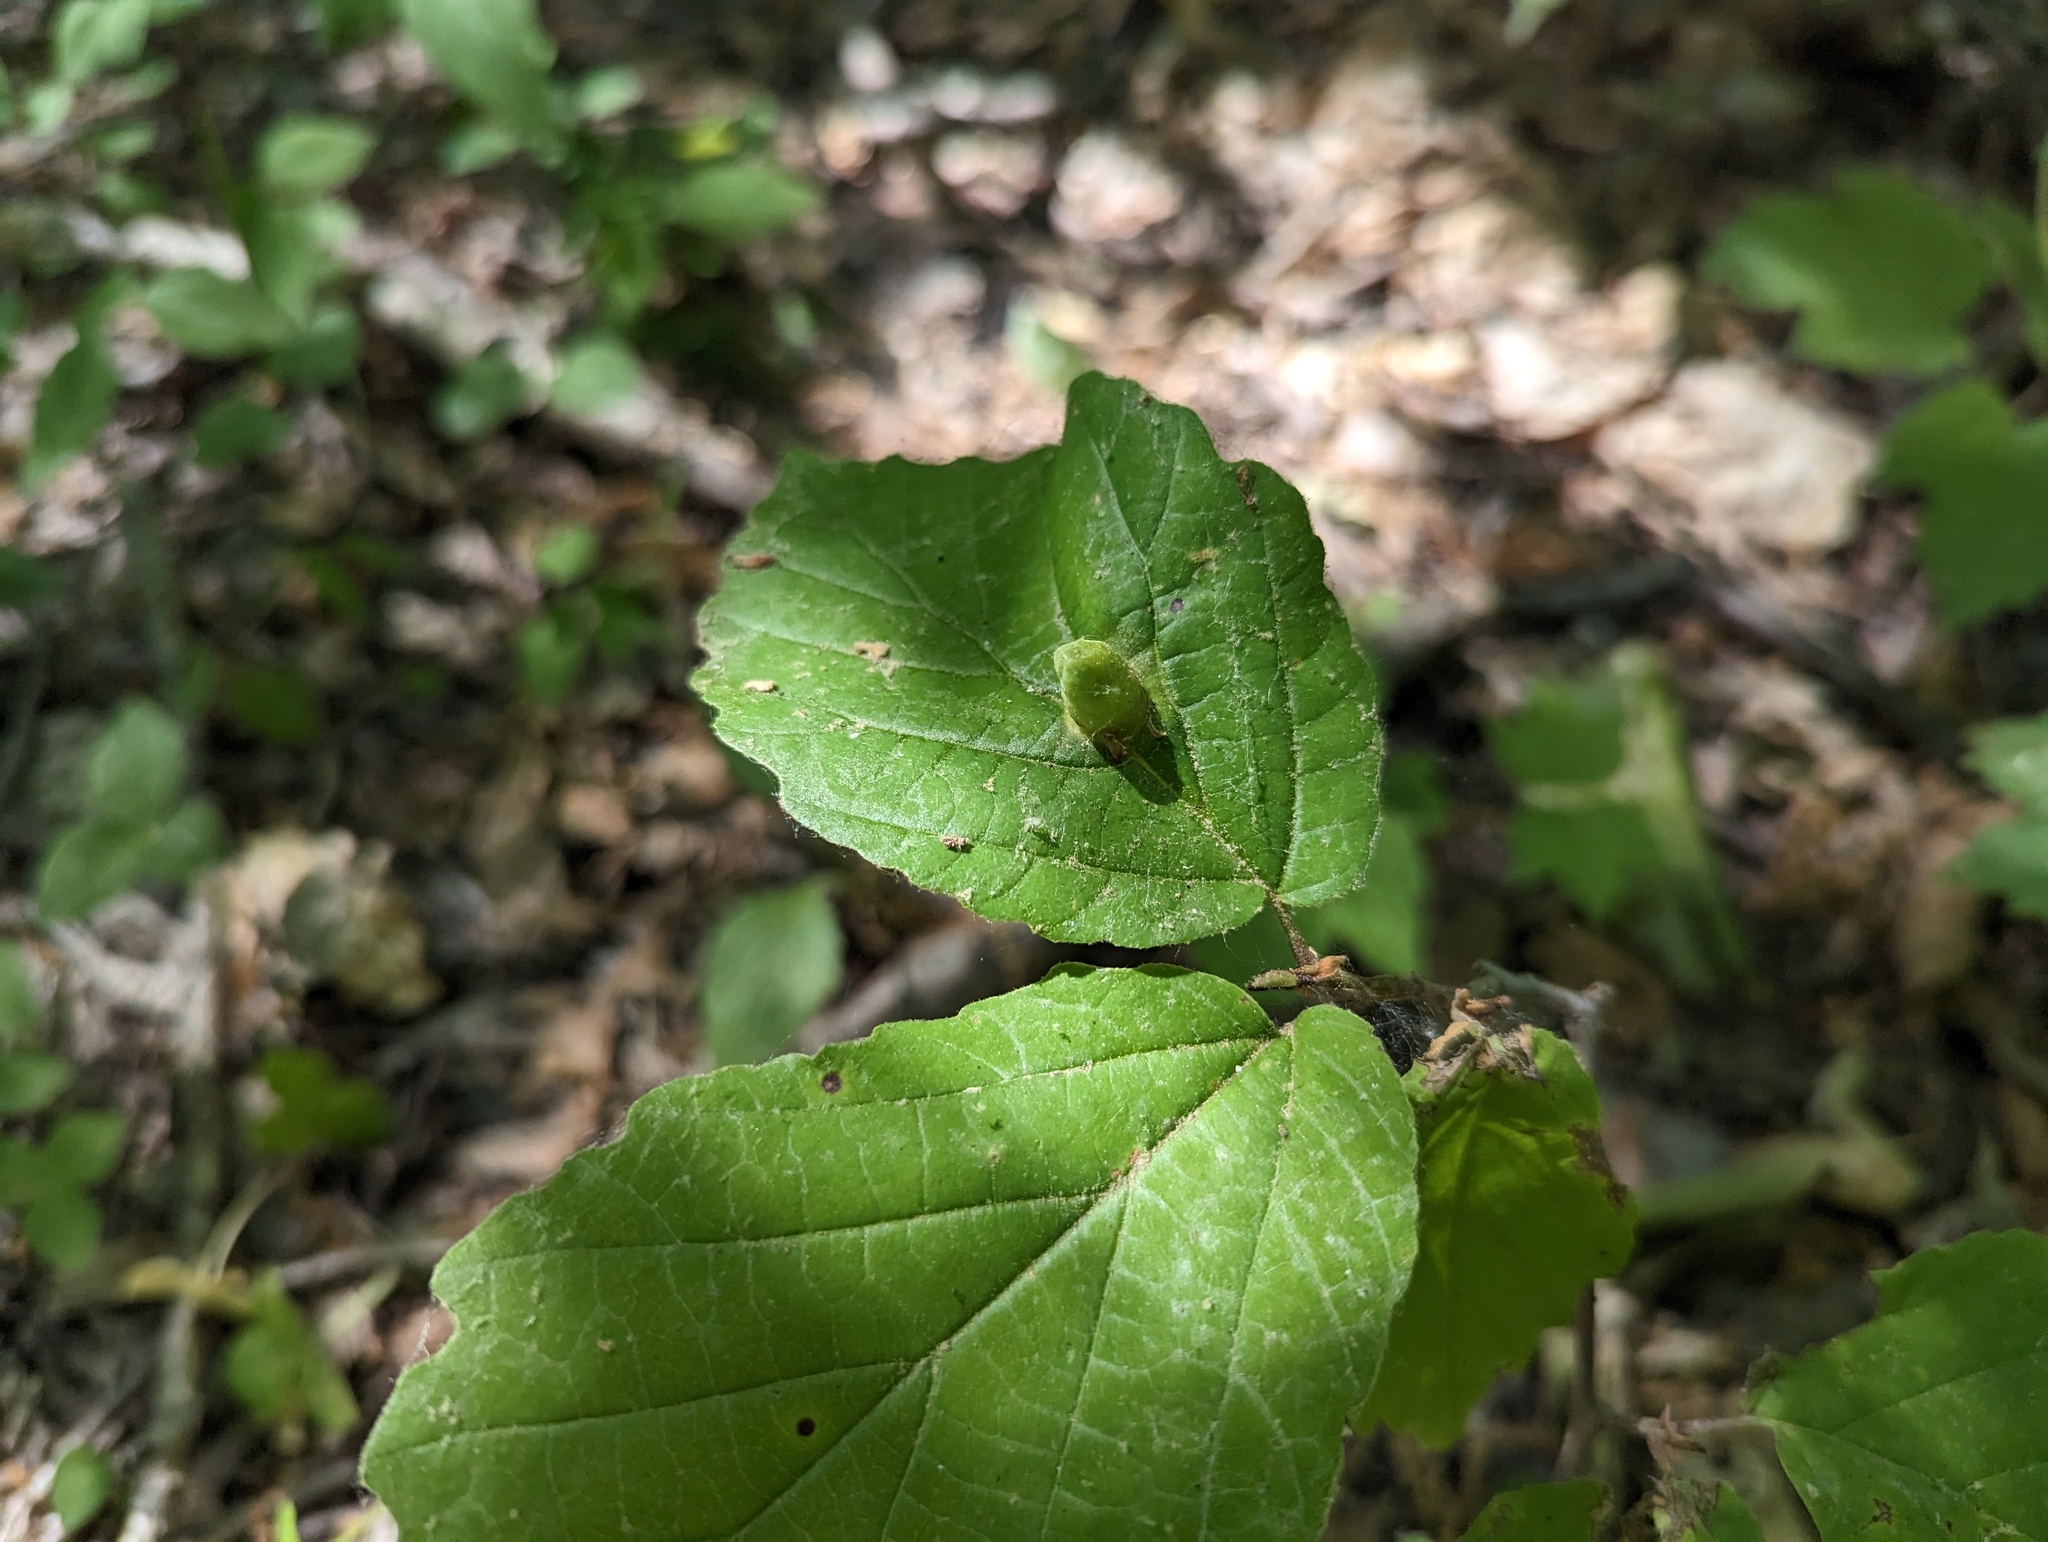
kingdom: Animalia
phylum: Arthropoda
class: Insecta
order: Hemiptera
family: Aphididae
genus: Hormaphis
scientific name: Hormaphis hamamelidis
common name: Witch-hazel cone gall aphid
